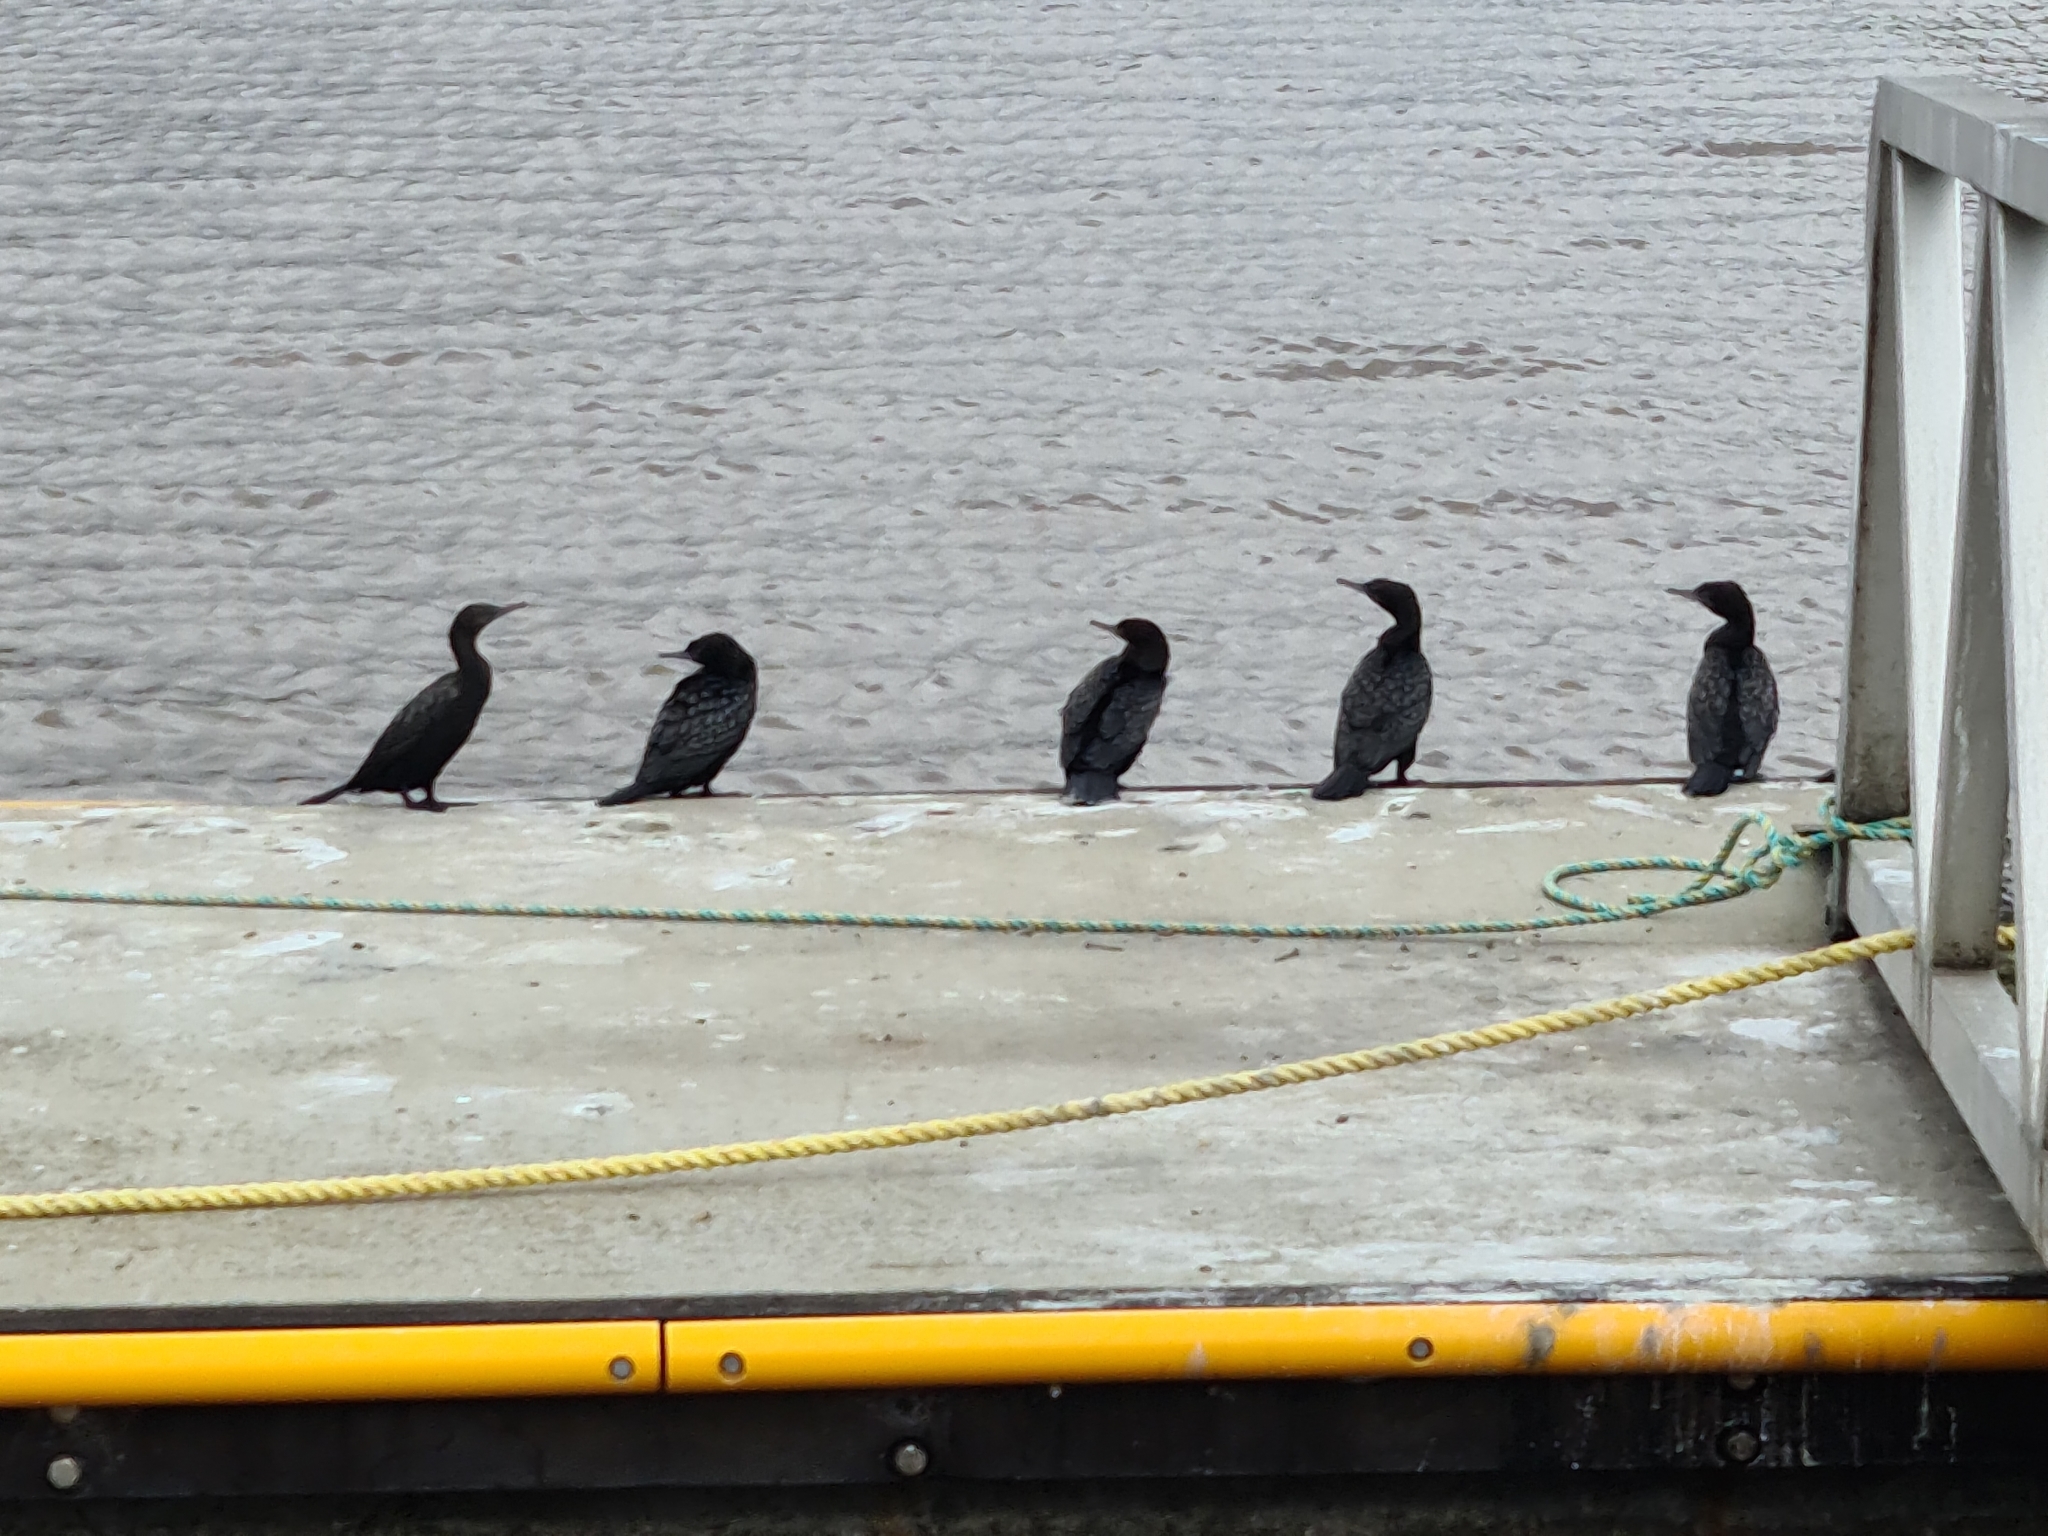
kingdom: Animalia
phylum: Chordata
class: Aves
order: Suliformes
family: Phalacrocoracidae
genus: Phalacrocorax
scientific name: Phalacrocorax sulcirostris
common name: Little black cormorant
